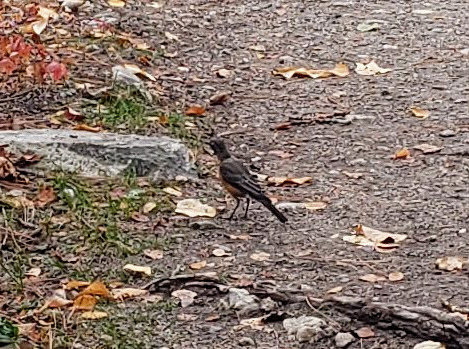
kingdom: Animalia
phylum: Chordata
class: Aves
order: Passeriformes
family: Turdidae
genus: Turdus
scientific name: Turdus migratorius
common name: American robin
